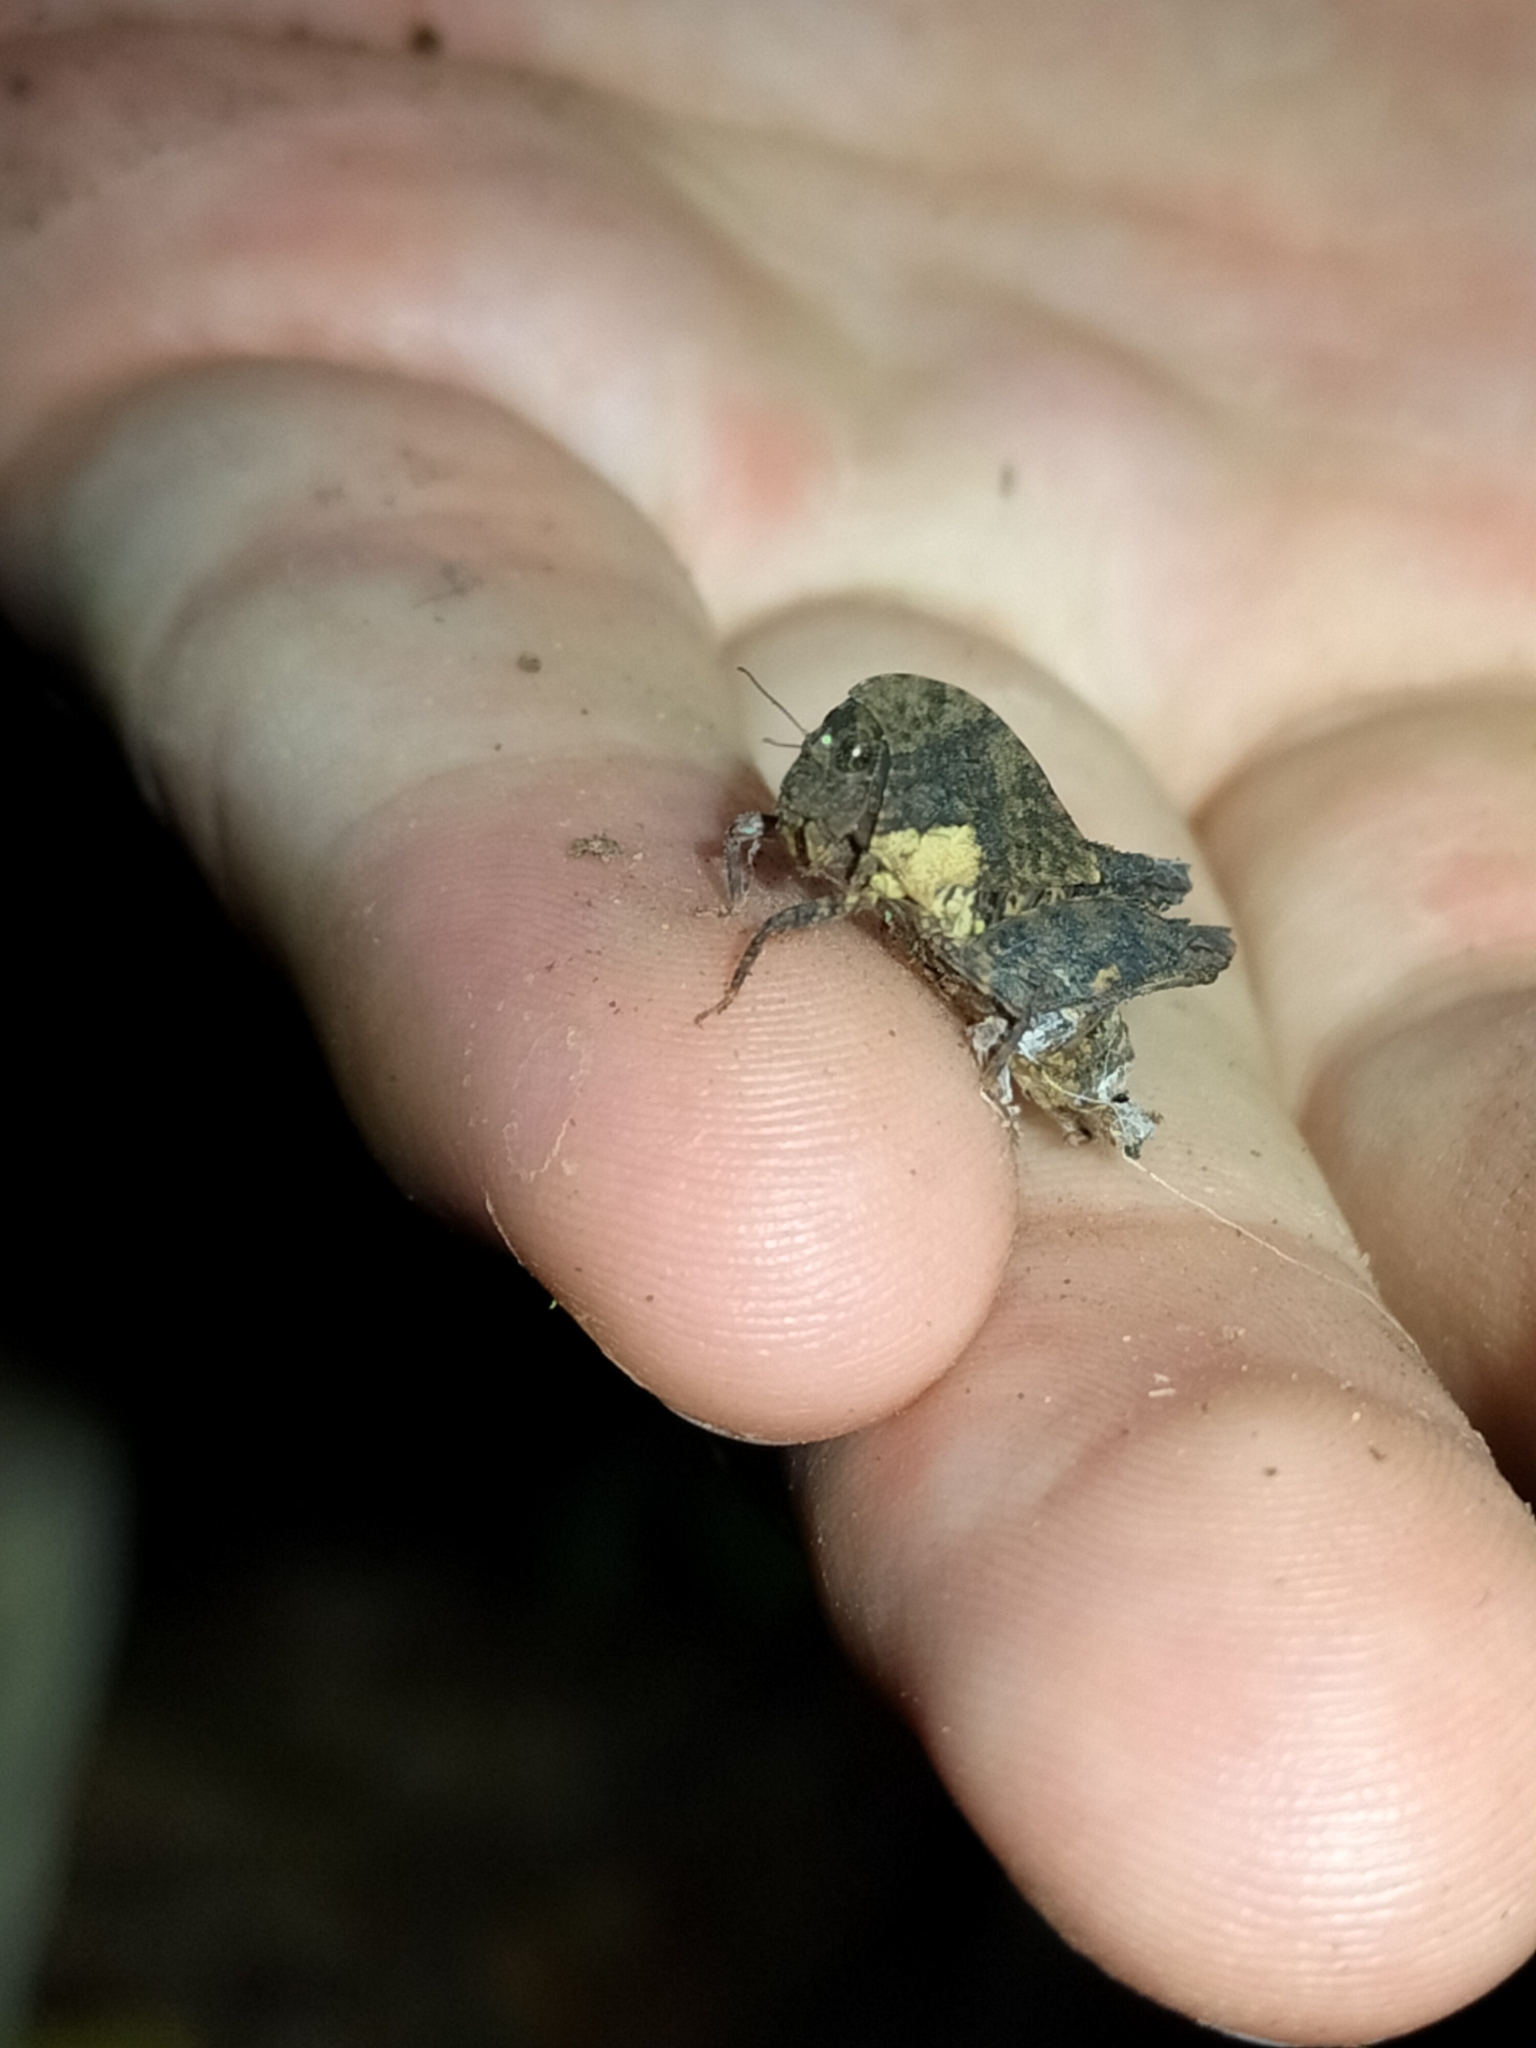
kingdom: Animalia
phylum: Arthropoda
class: Insecta
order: Orthoptera
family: Tetrigidae
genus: Selivinga
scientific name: Selivinga tribulata
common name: Tribulation helmed groundhopper
